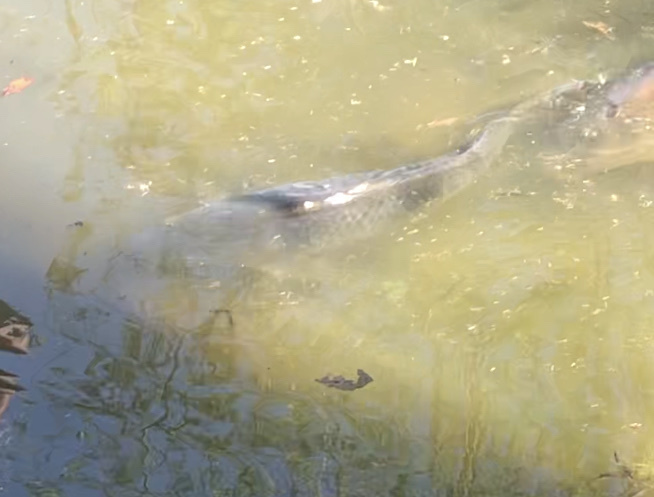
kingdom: Animalia
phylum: Chordata
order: Cypriniformes
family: Cyprinidae
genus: Cyprinus
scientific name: Cyprinus carpio
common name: Common carp
